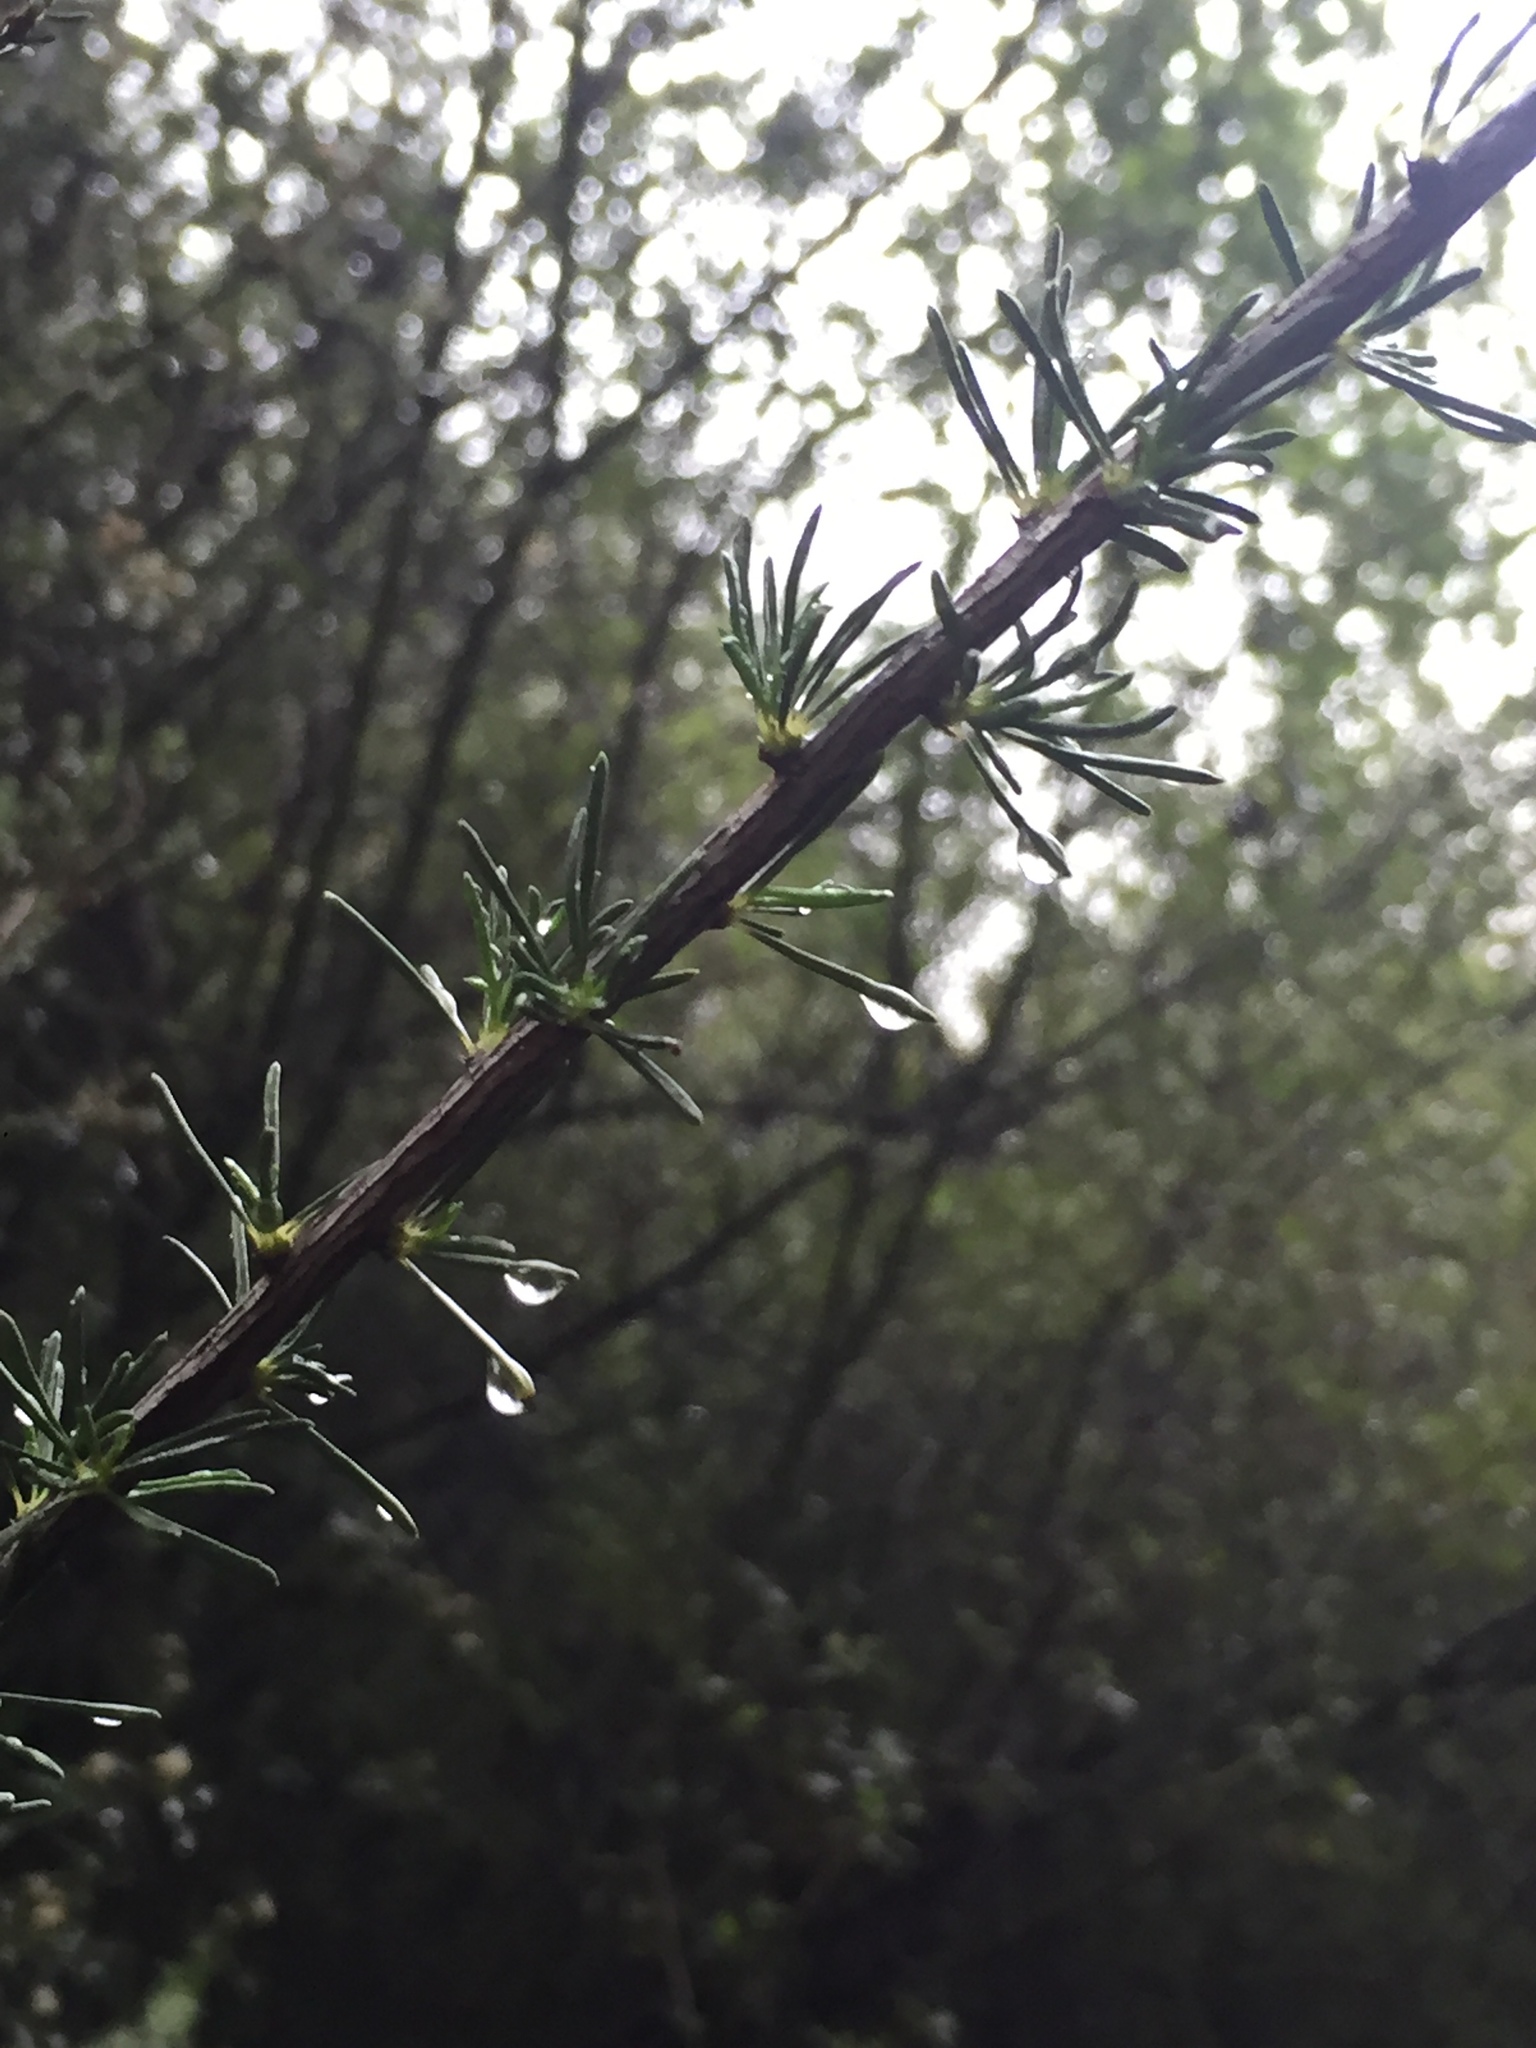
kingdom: Plantae
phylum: Tracheophyta
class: Magnoliopsida
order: Rosales
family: Rosaceae
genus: Adenostoma
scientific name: Adenostoma fasciculatum
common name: Chamise
